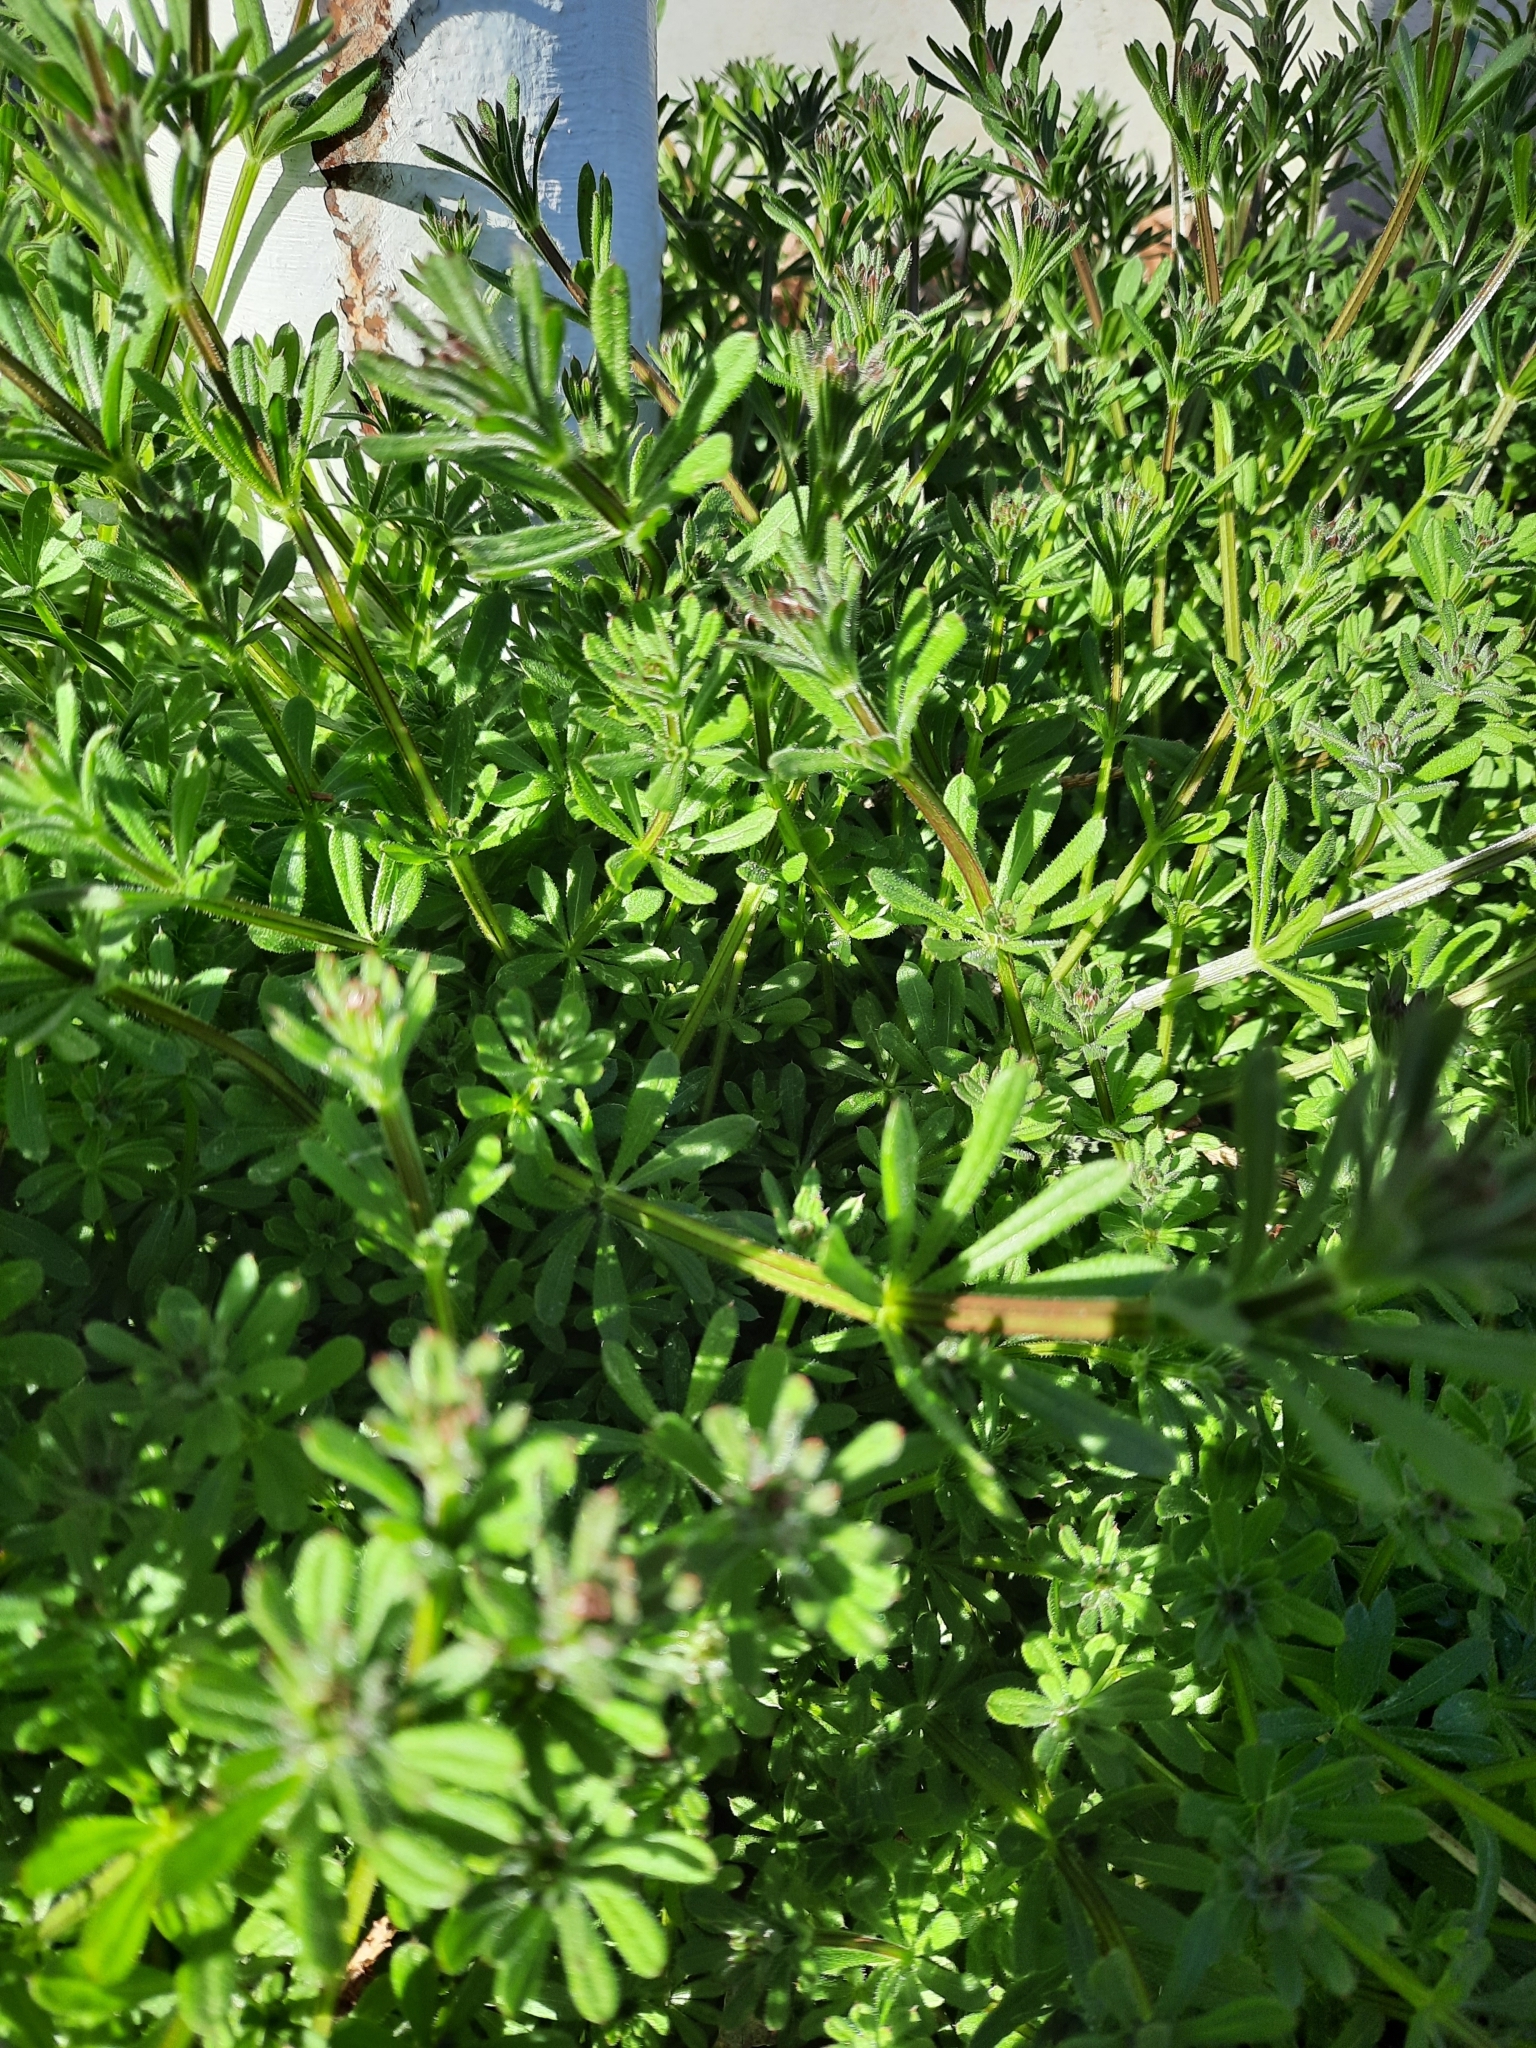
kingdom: Plantae
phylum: Tracheophyta
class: Magnoliopsida
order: Gentianales
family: Rubiaceae
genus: Galium
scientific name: Galium aparine
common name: Cleavers
